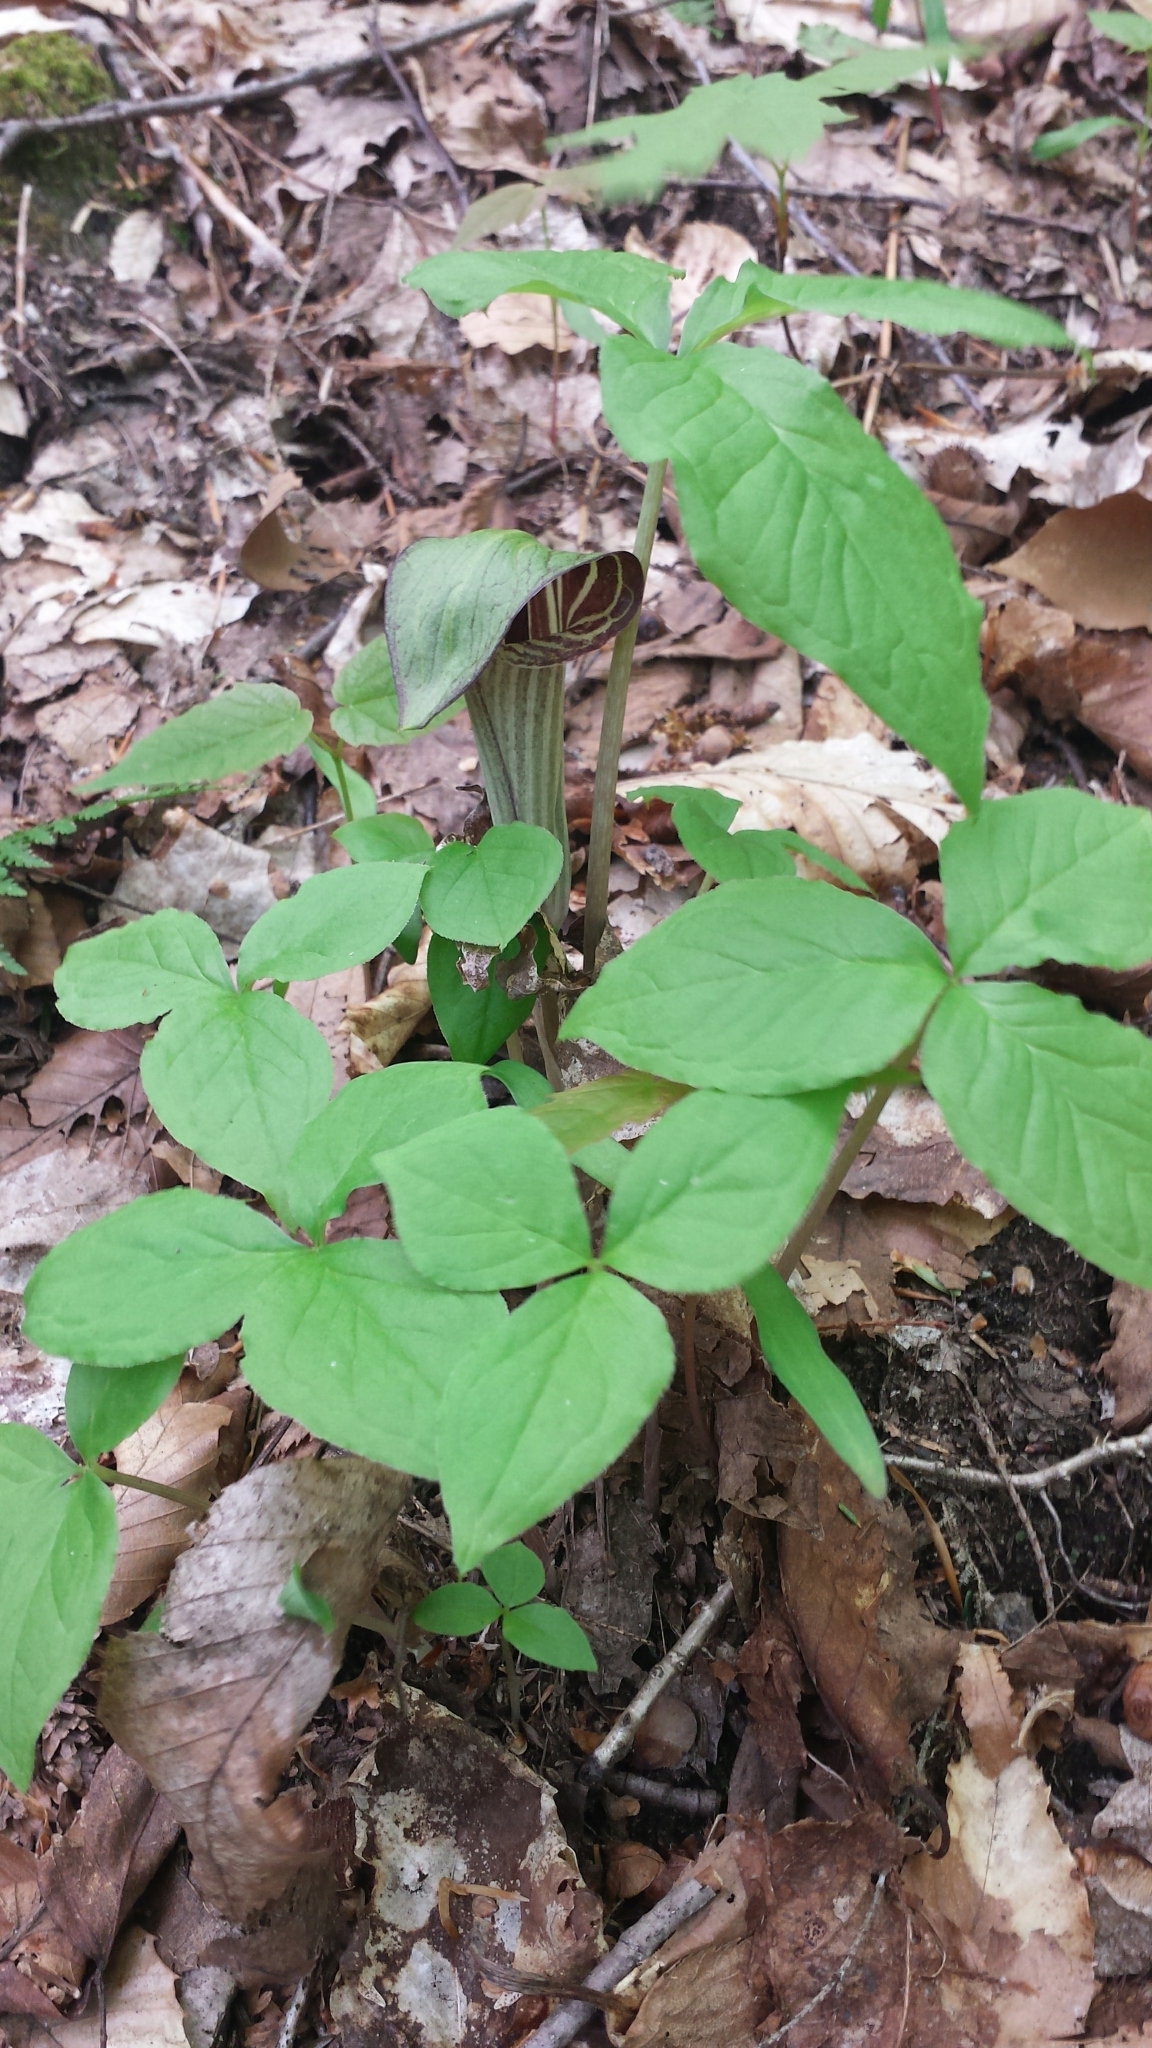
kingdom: Plantae
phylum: Tracheophyta
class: Liliopsida
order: Alismatales
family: Araceae
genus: Arisaema
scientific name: Arisaema triphyllum
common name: Jack-in-the-pulpit
